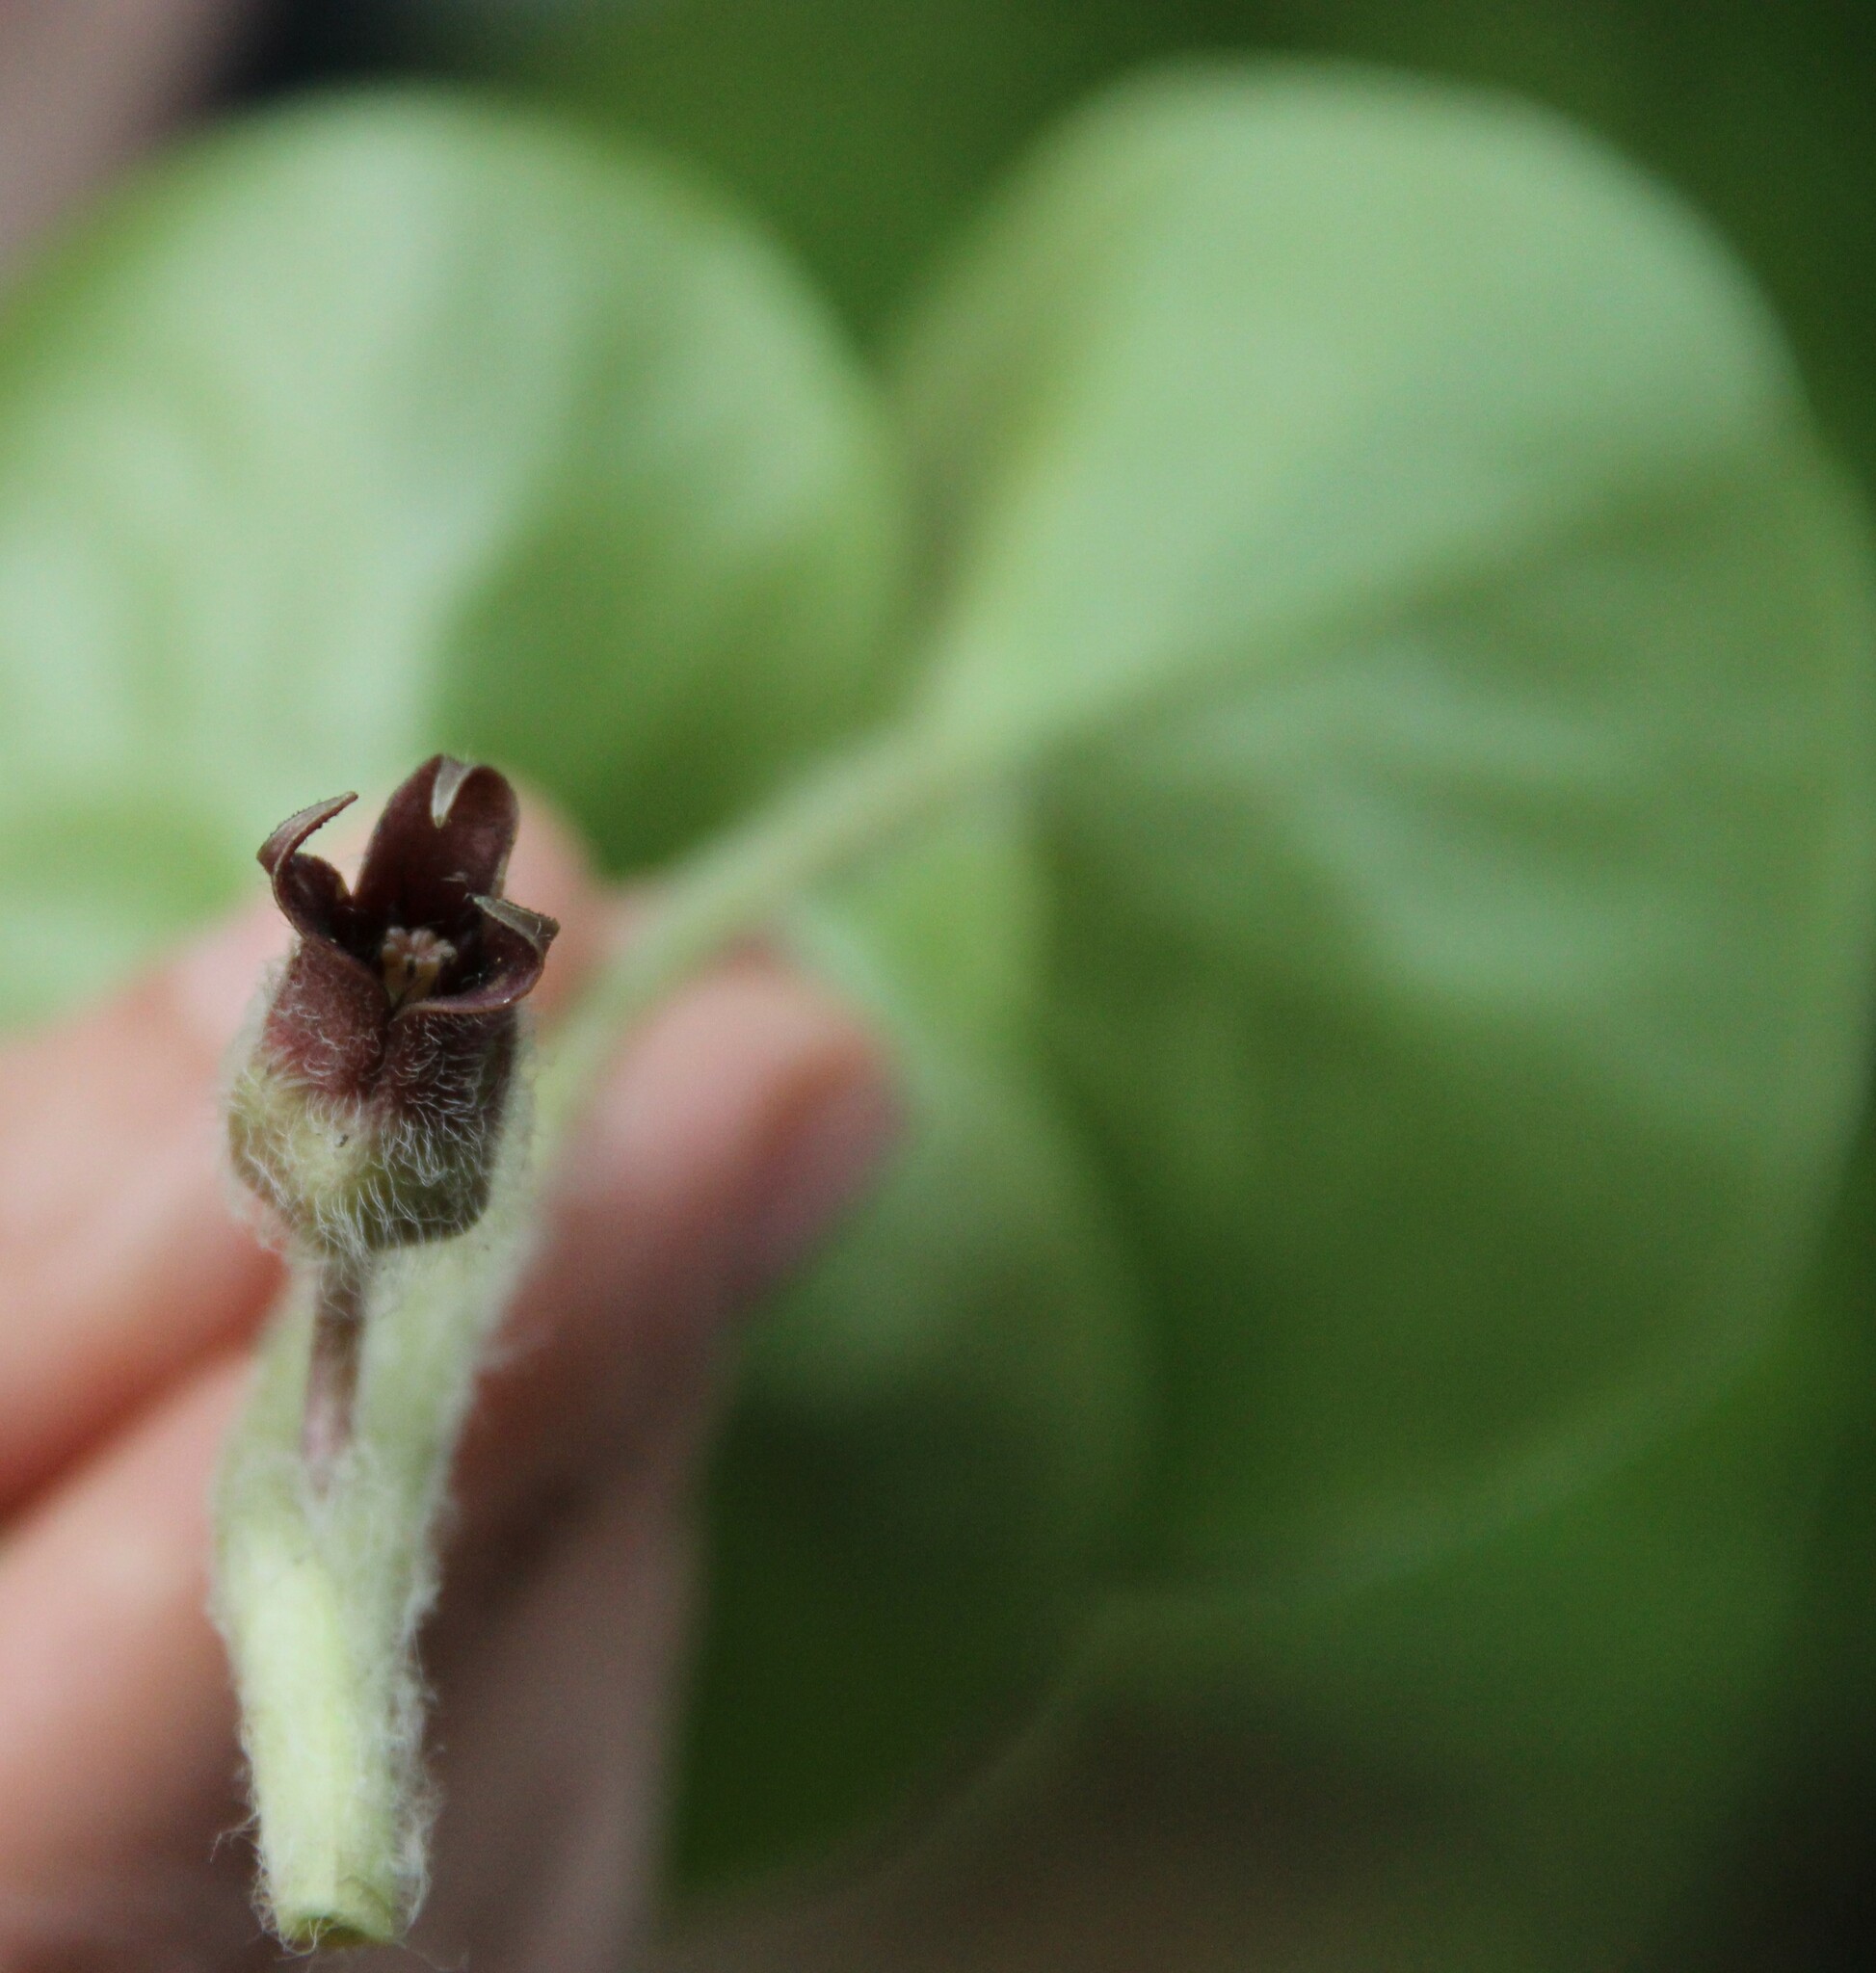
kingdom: Plantae
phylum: Tracheophyta
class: Magnoliopsida
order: Piperales
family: Aristolochiaceae
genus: Asarum
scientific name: Asarum europaeum
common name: Asarabacca
